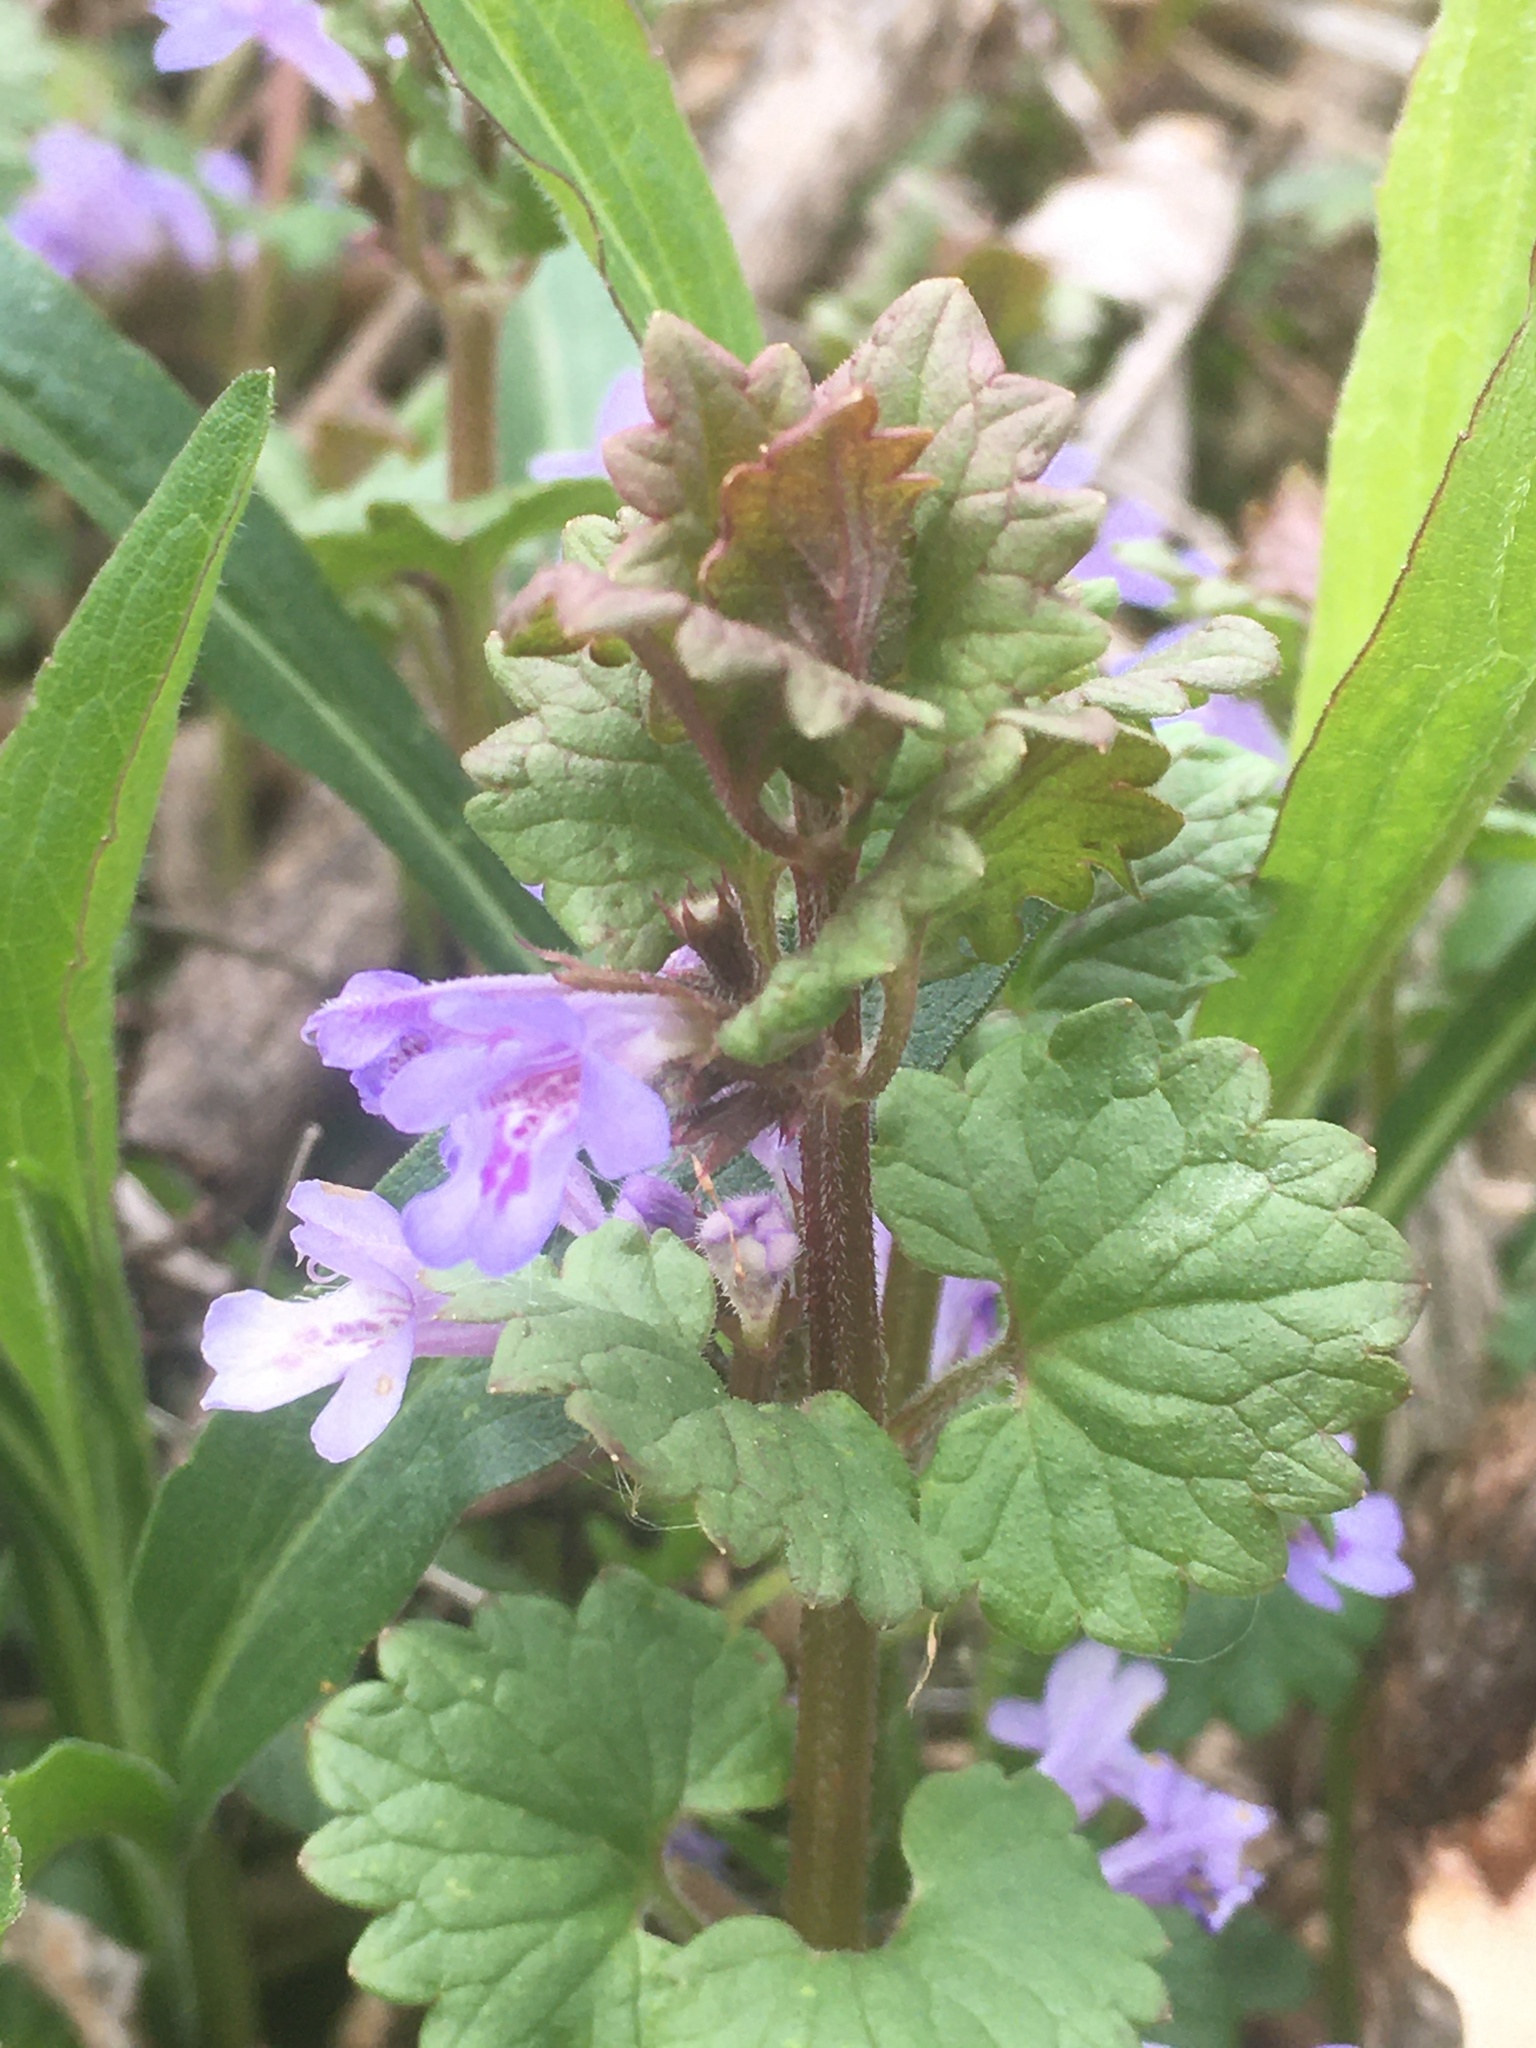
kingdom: Plantae
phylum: Tracheophyta
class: Magnoliopsida
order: Lamiales
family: Lamiaceae
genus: Glechoma
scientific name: Glechoma hederacea
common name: Ground ivy
